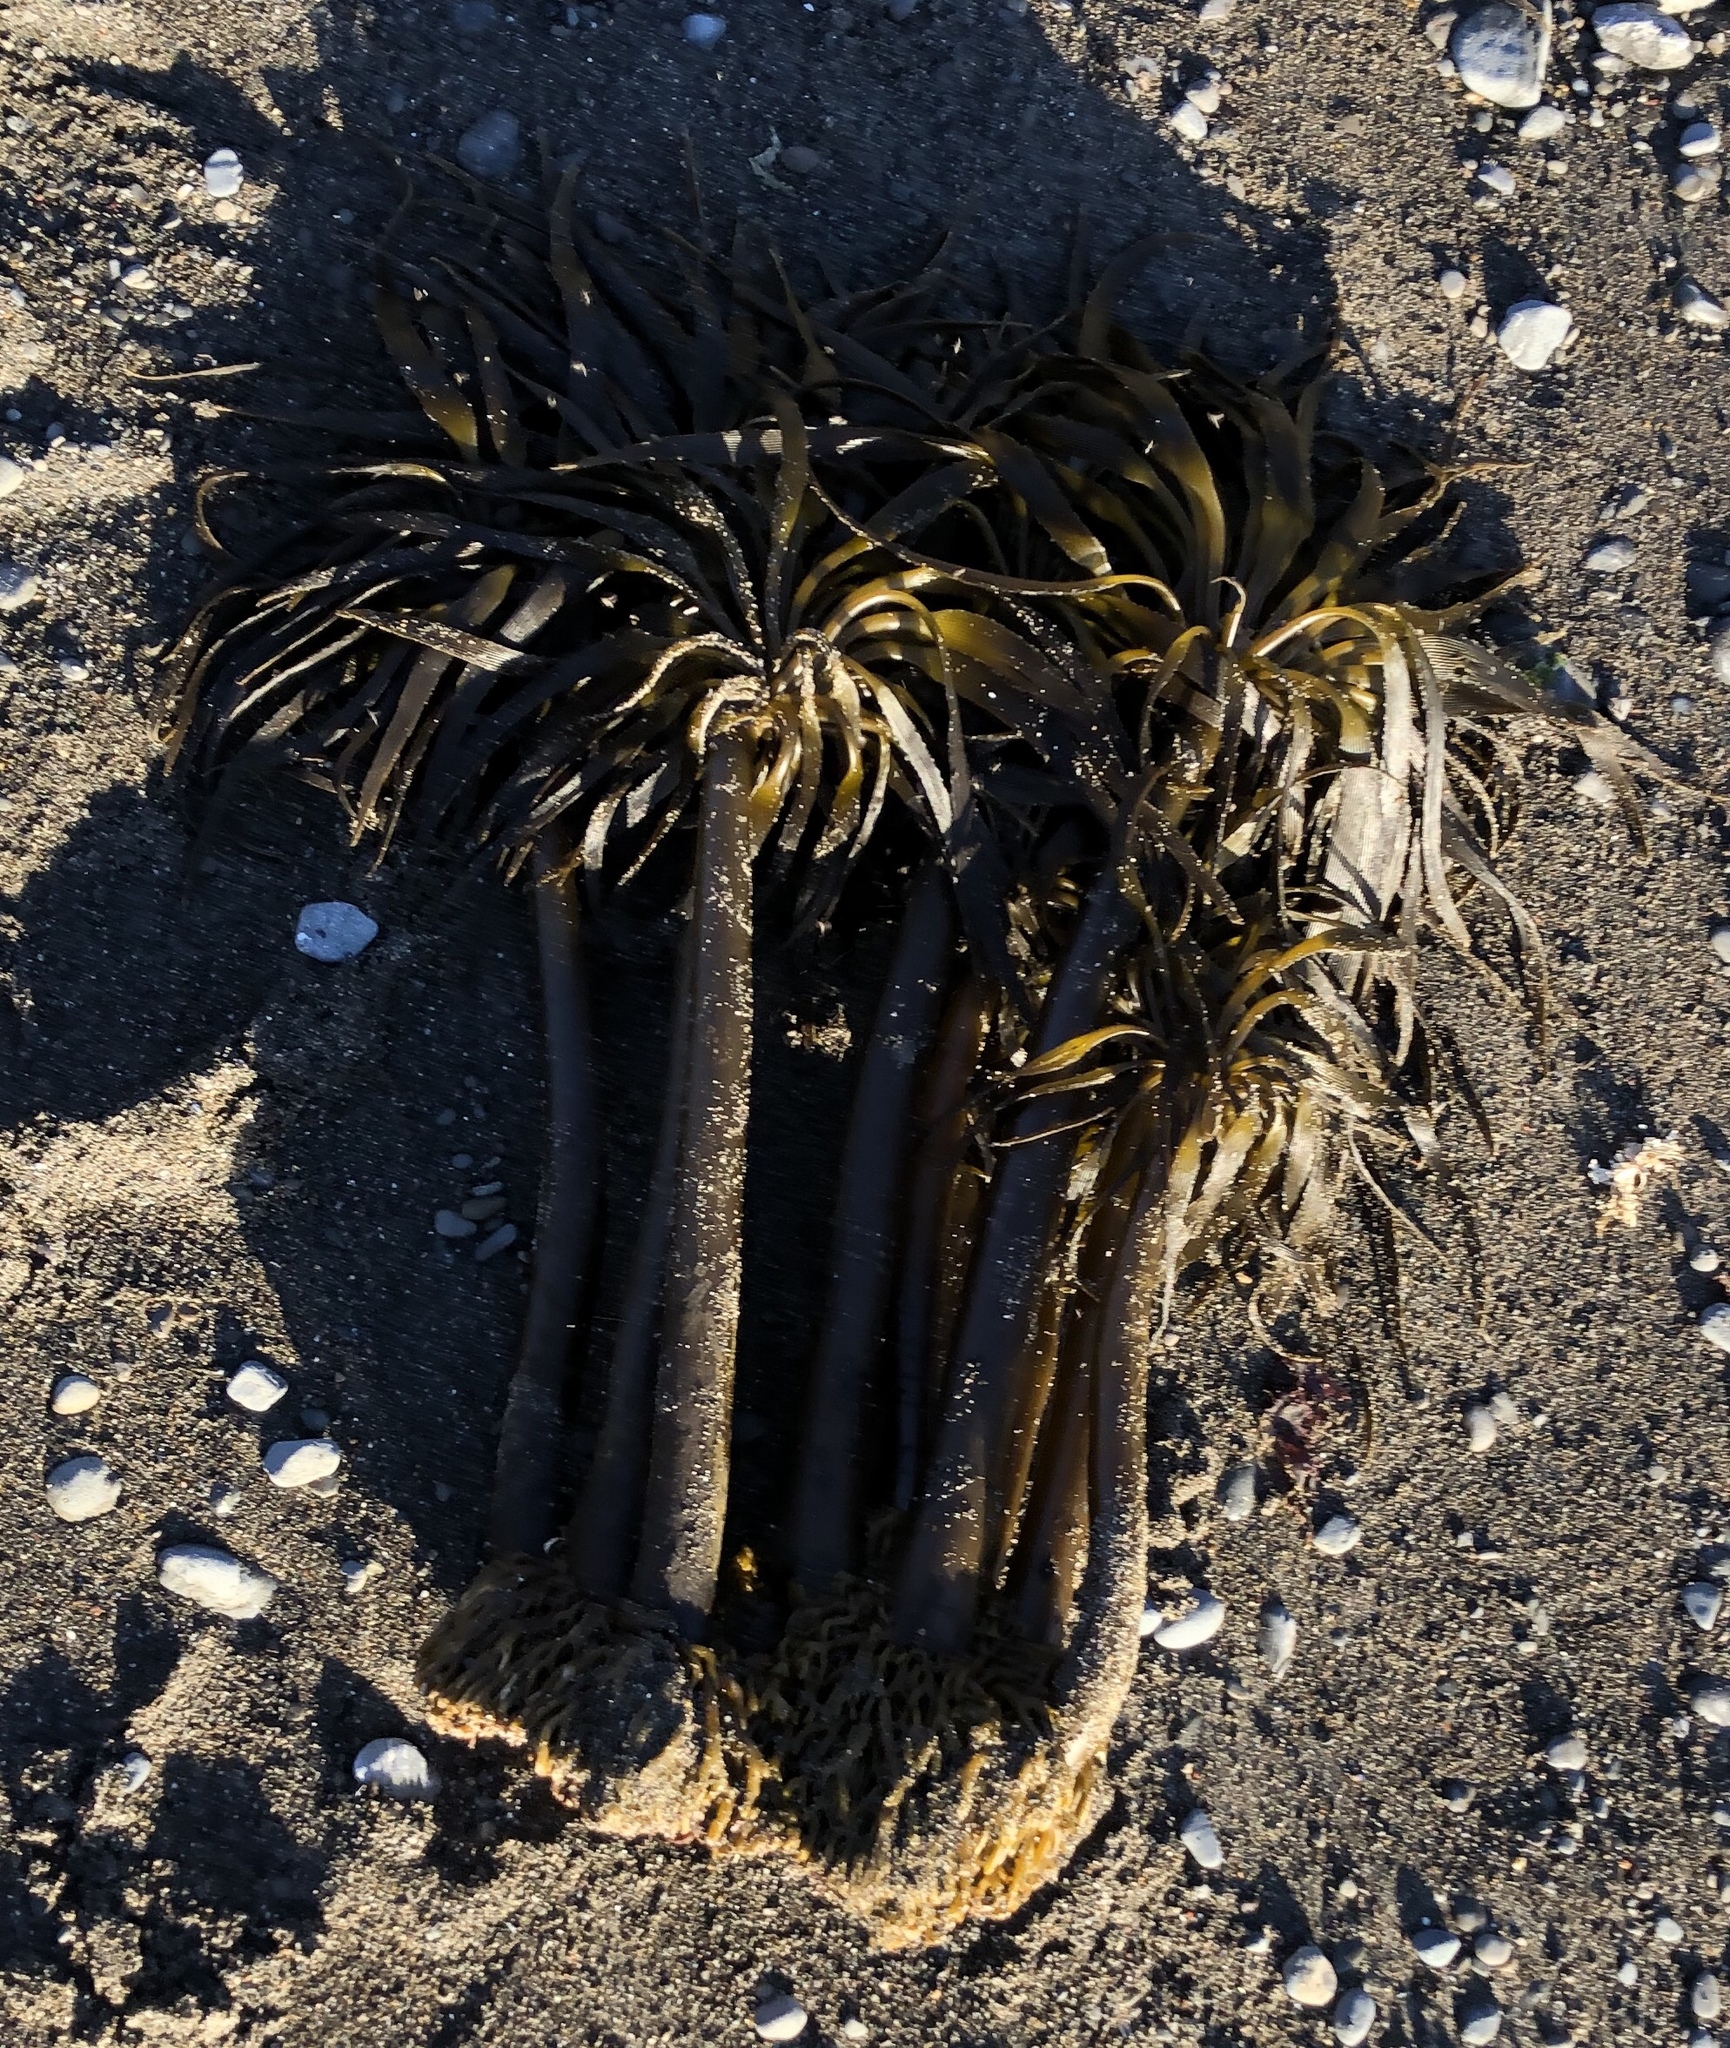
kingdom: Chromista
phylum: Ochrophyta
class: Phaeophyceae
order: Laminariales
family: Laminariaceae
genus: Postelsia
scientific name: Postelsia palmiformis
